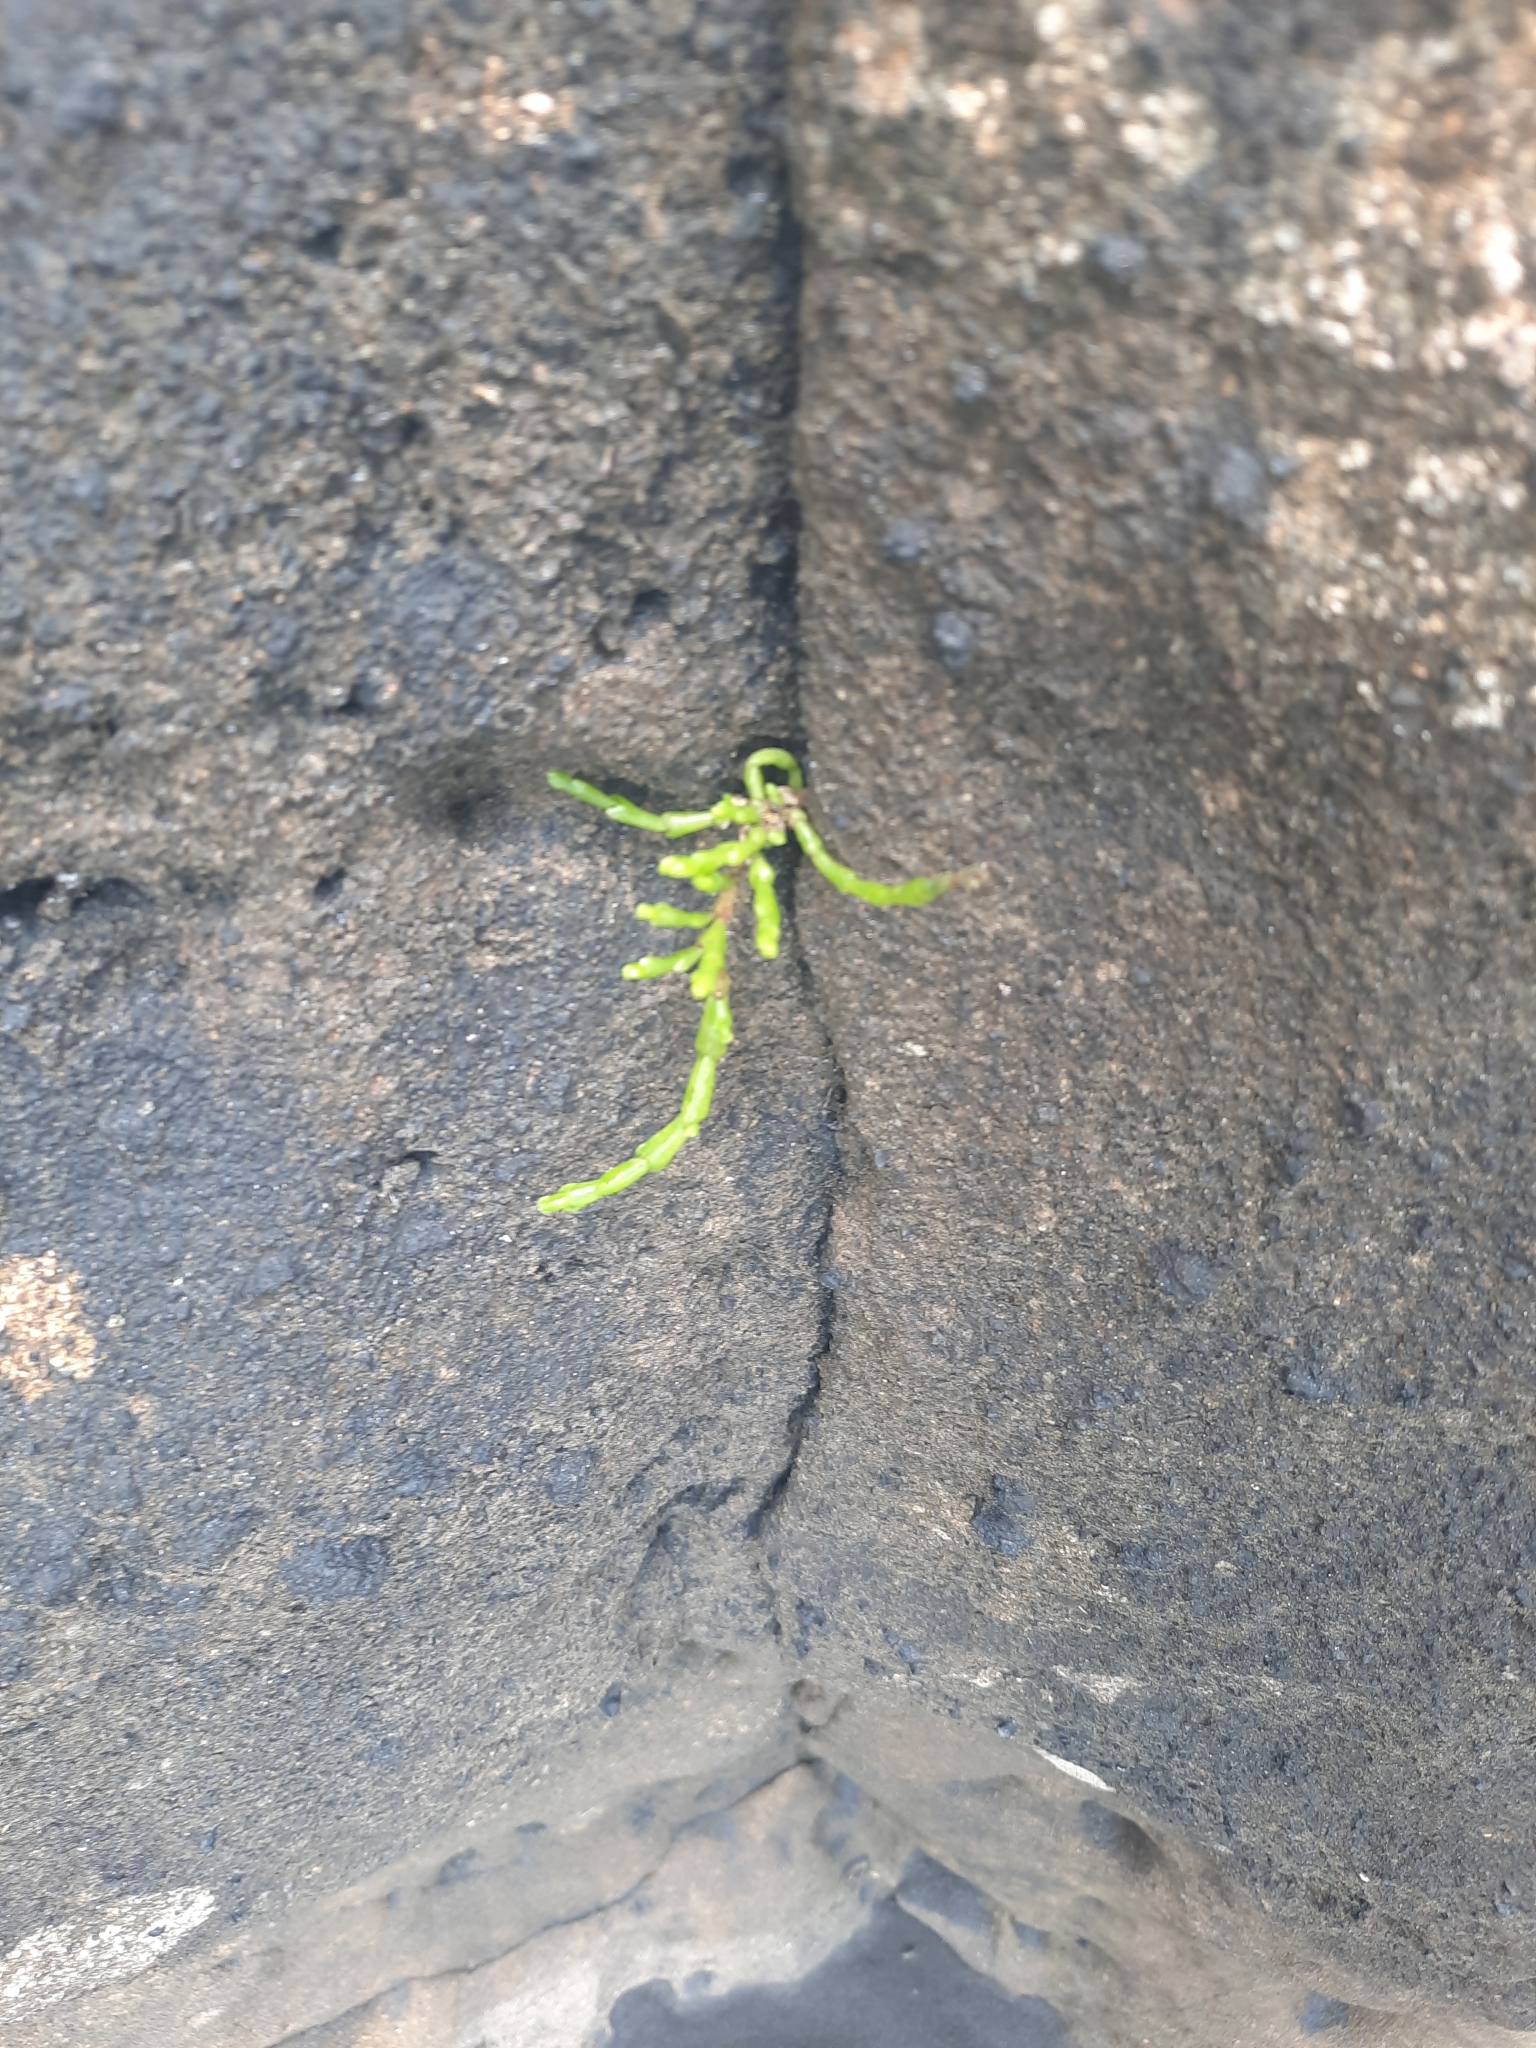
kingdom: Plantae
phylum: Tracheophyta
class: Magnoliopsida
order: Caryophyllales
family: Amaranthaceae
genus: Salicornia
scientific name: Salicornia quinqueflora
